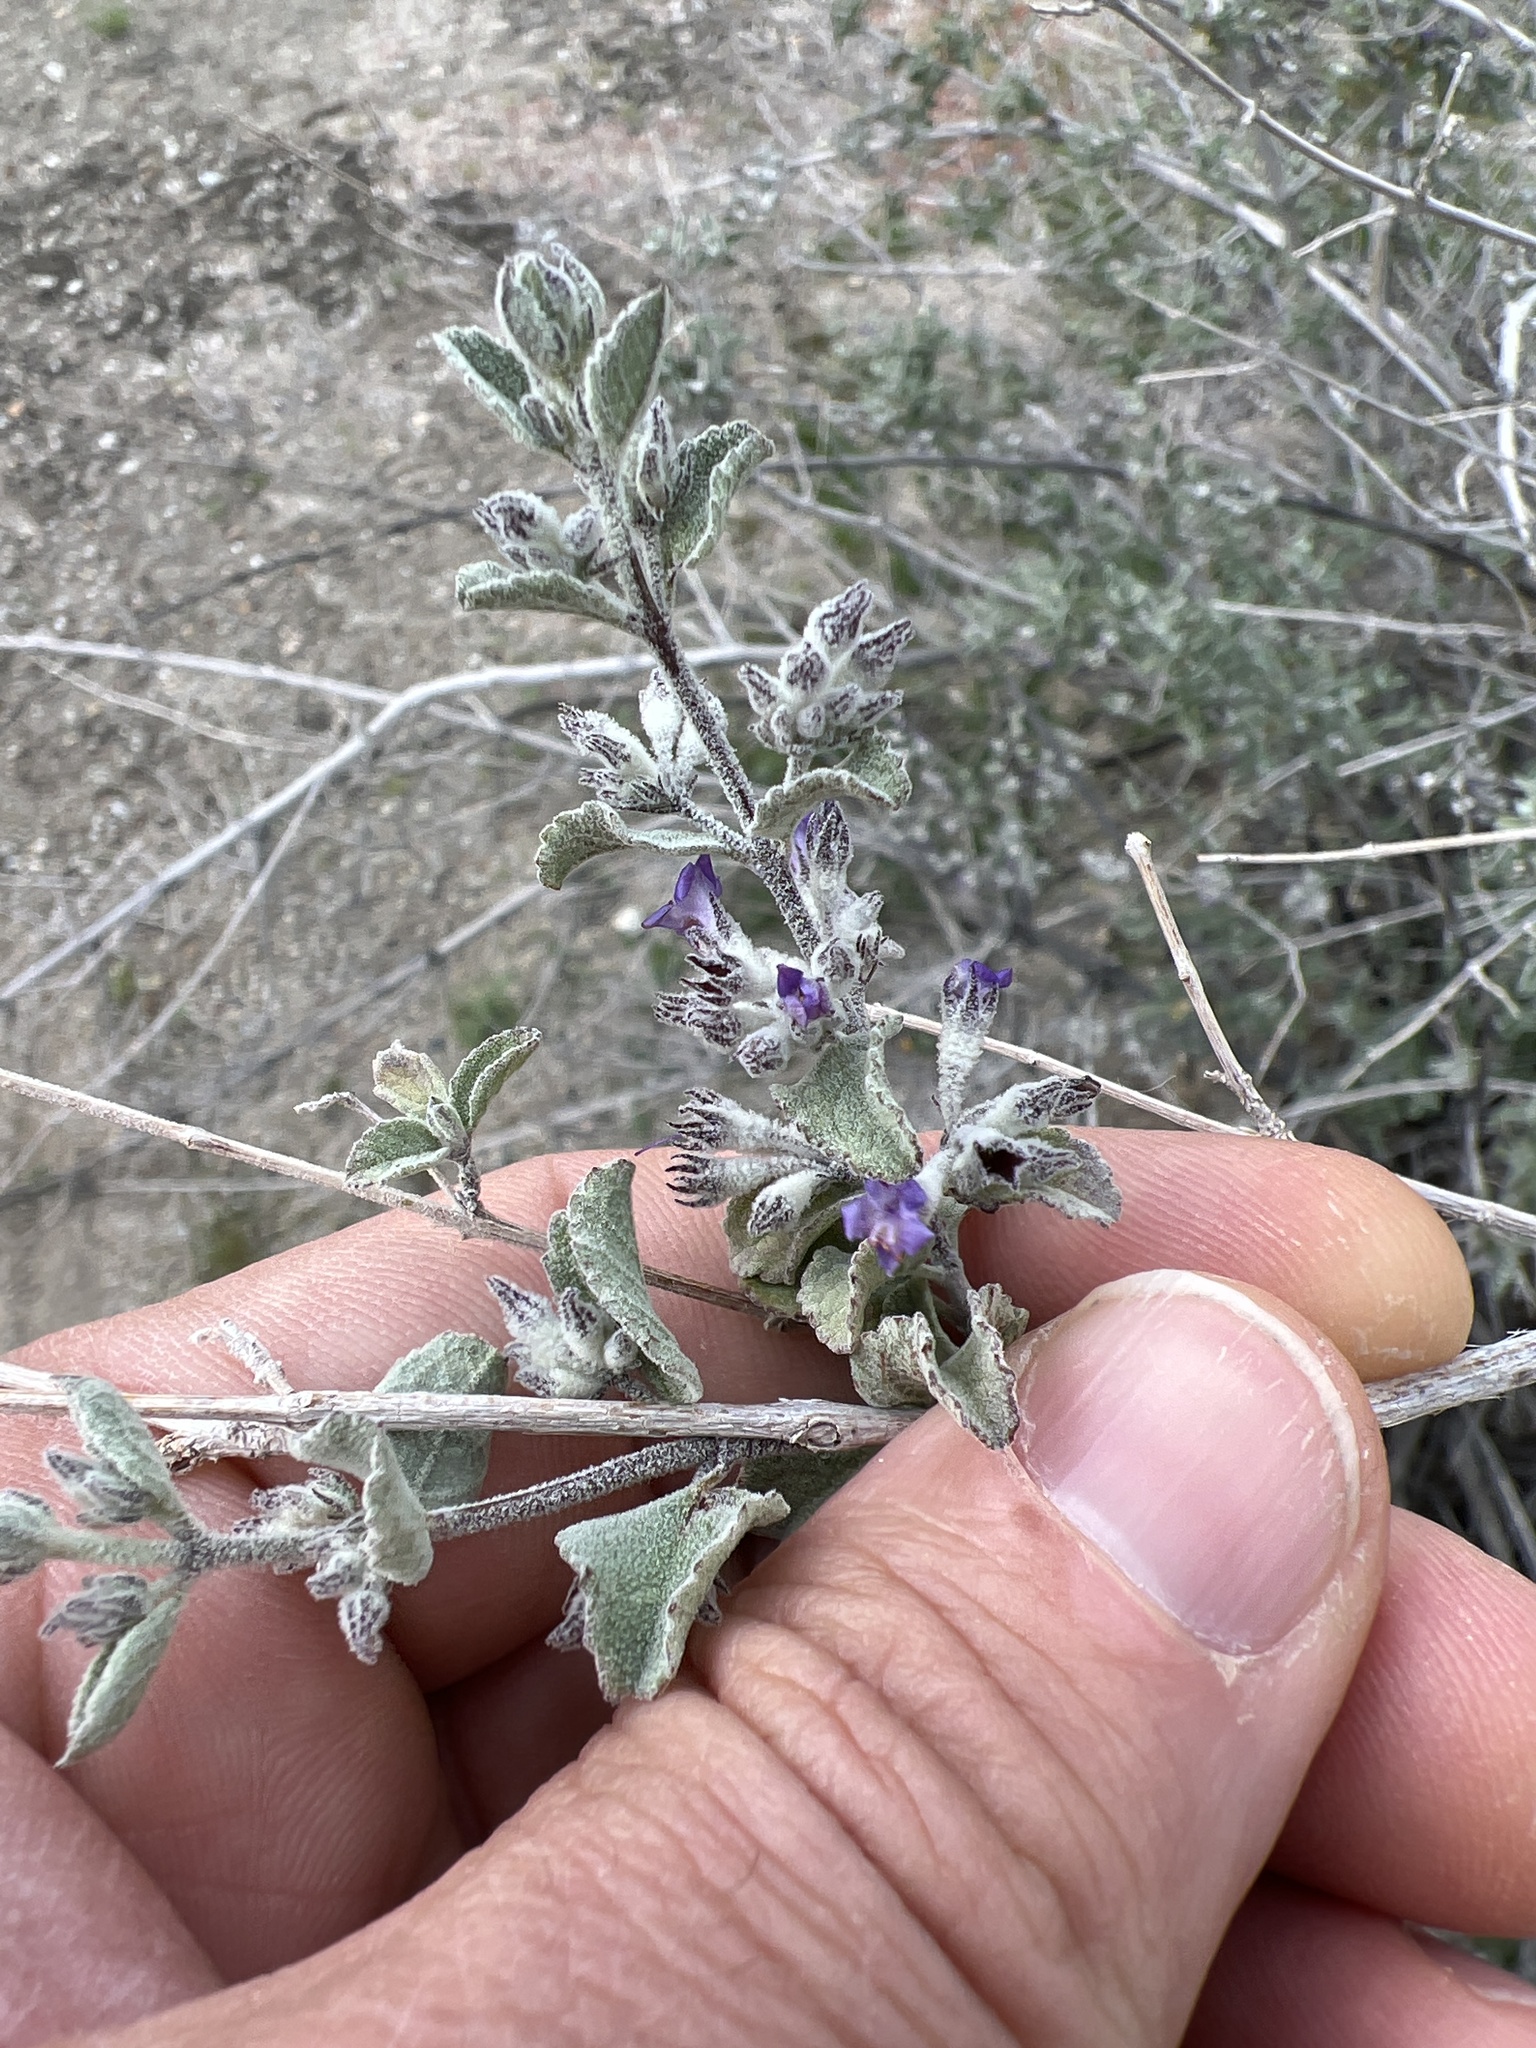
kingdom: Plantae
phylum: Tracheophyta
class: Magnoliopsida
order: Lamiales
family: Lamiaceae
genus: Condea
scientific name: Condea emoryi
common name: Chia
